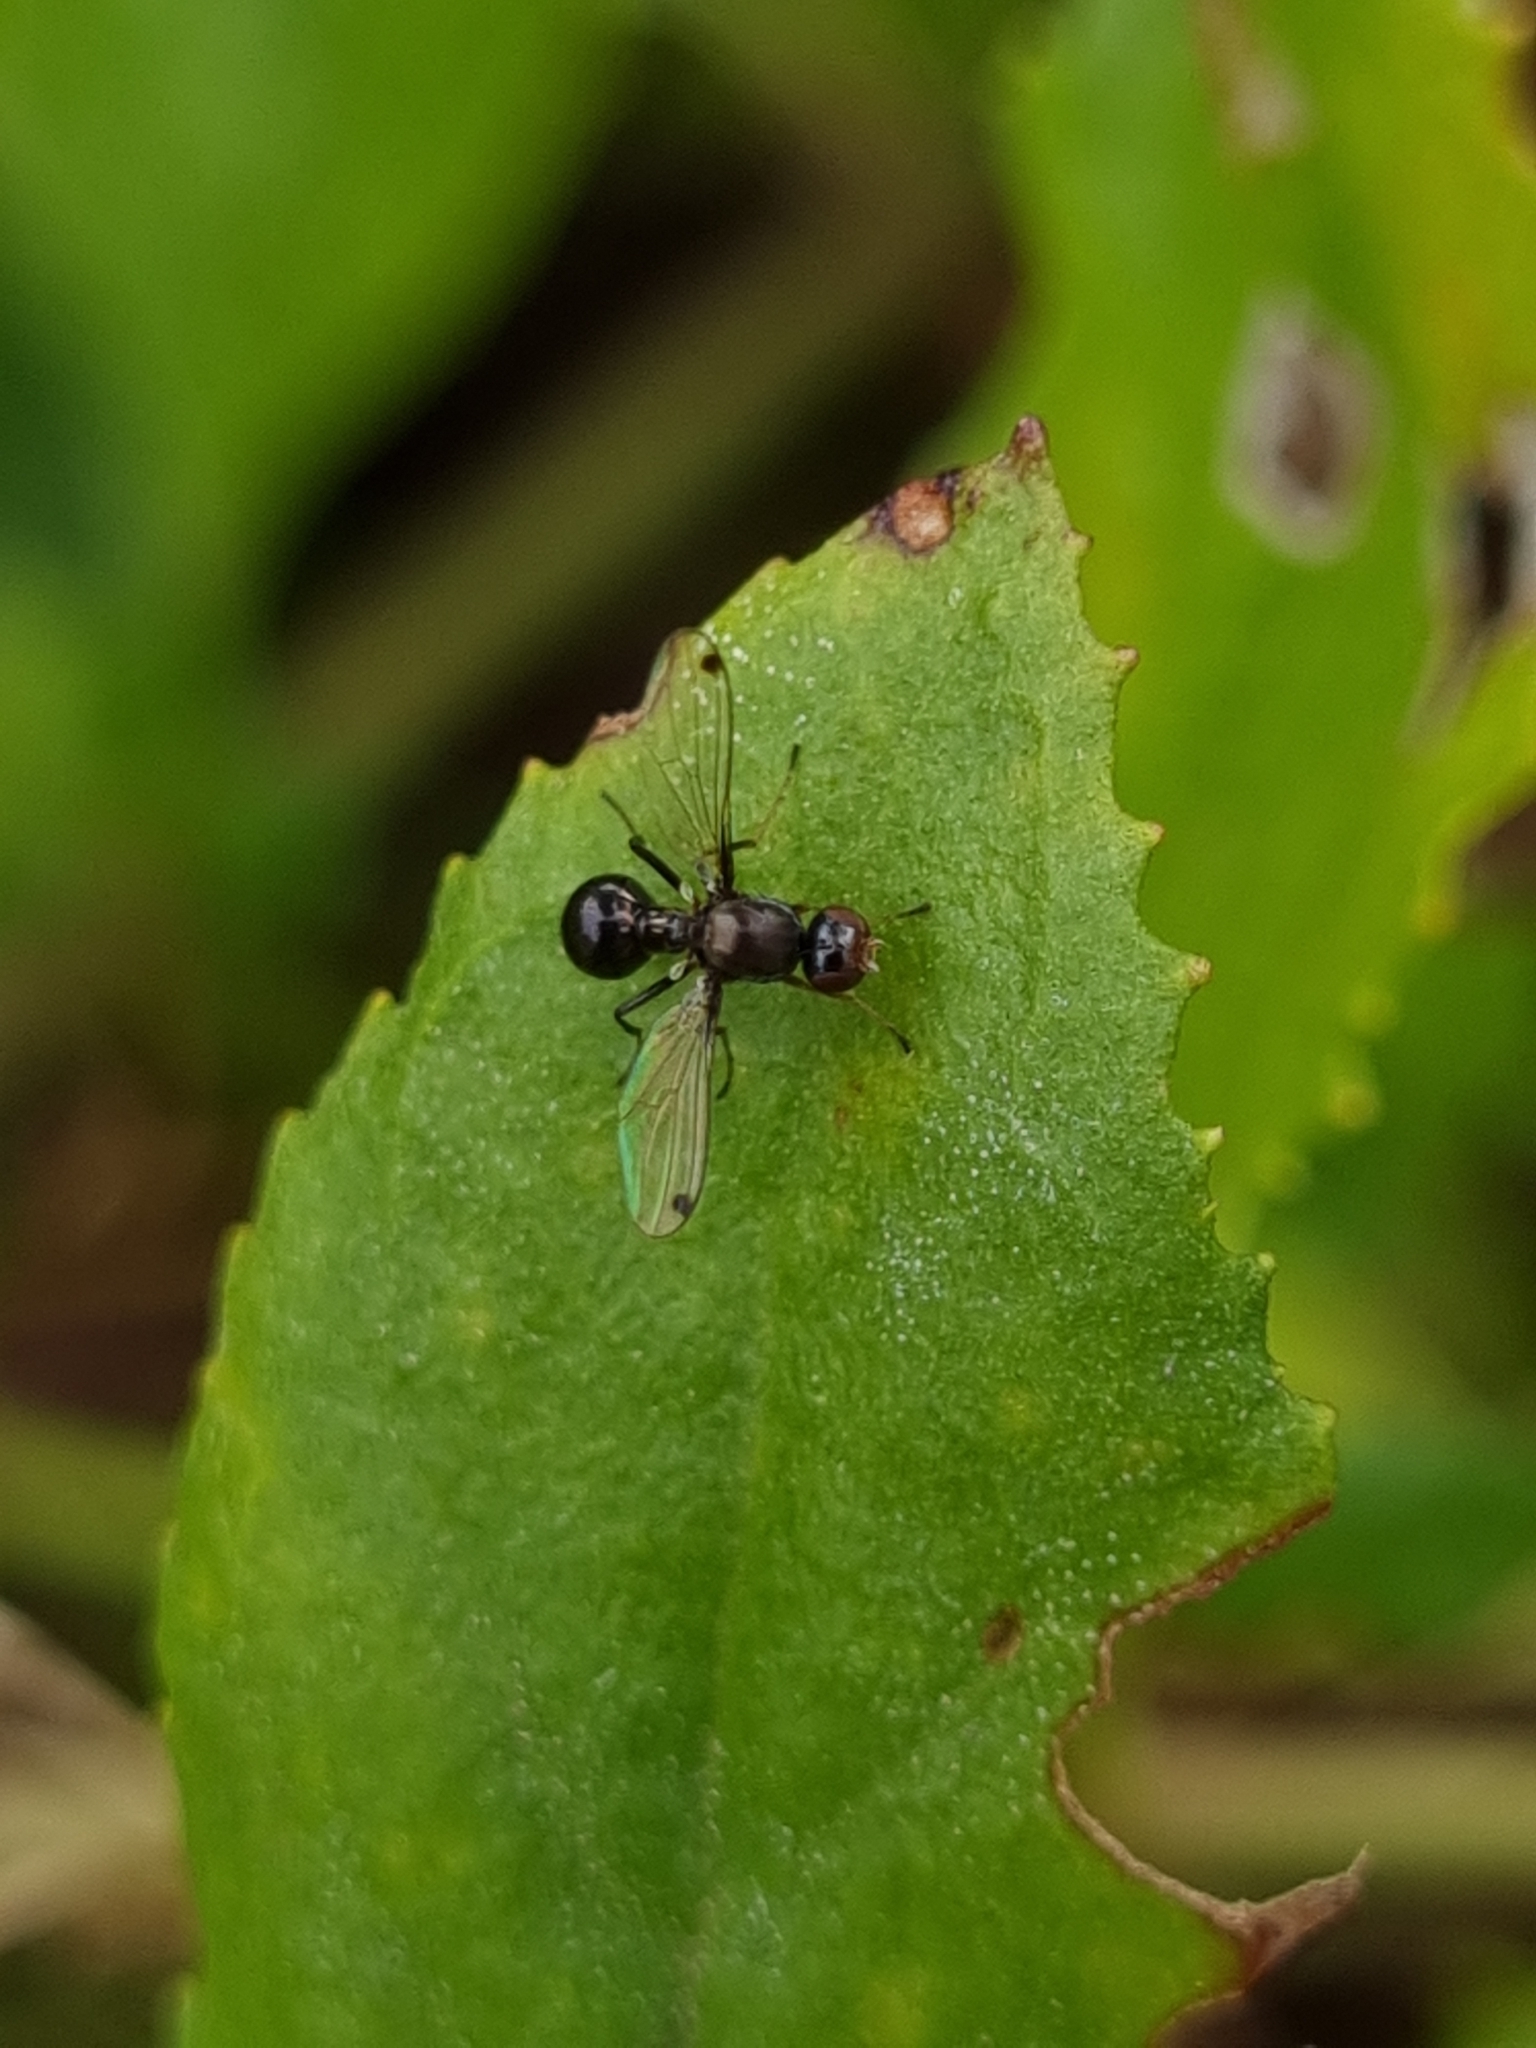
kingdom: Animalia
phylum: Arthropoda
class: Insecta
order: Diptera
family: Sepsidae
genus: Parapalaeosepsis
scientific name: Parapalaeosepsis plebeia
